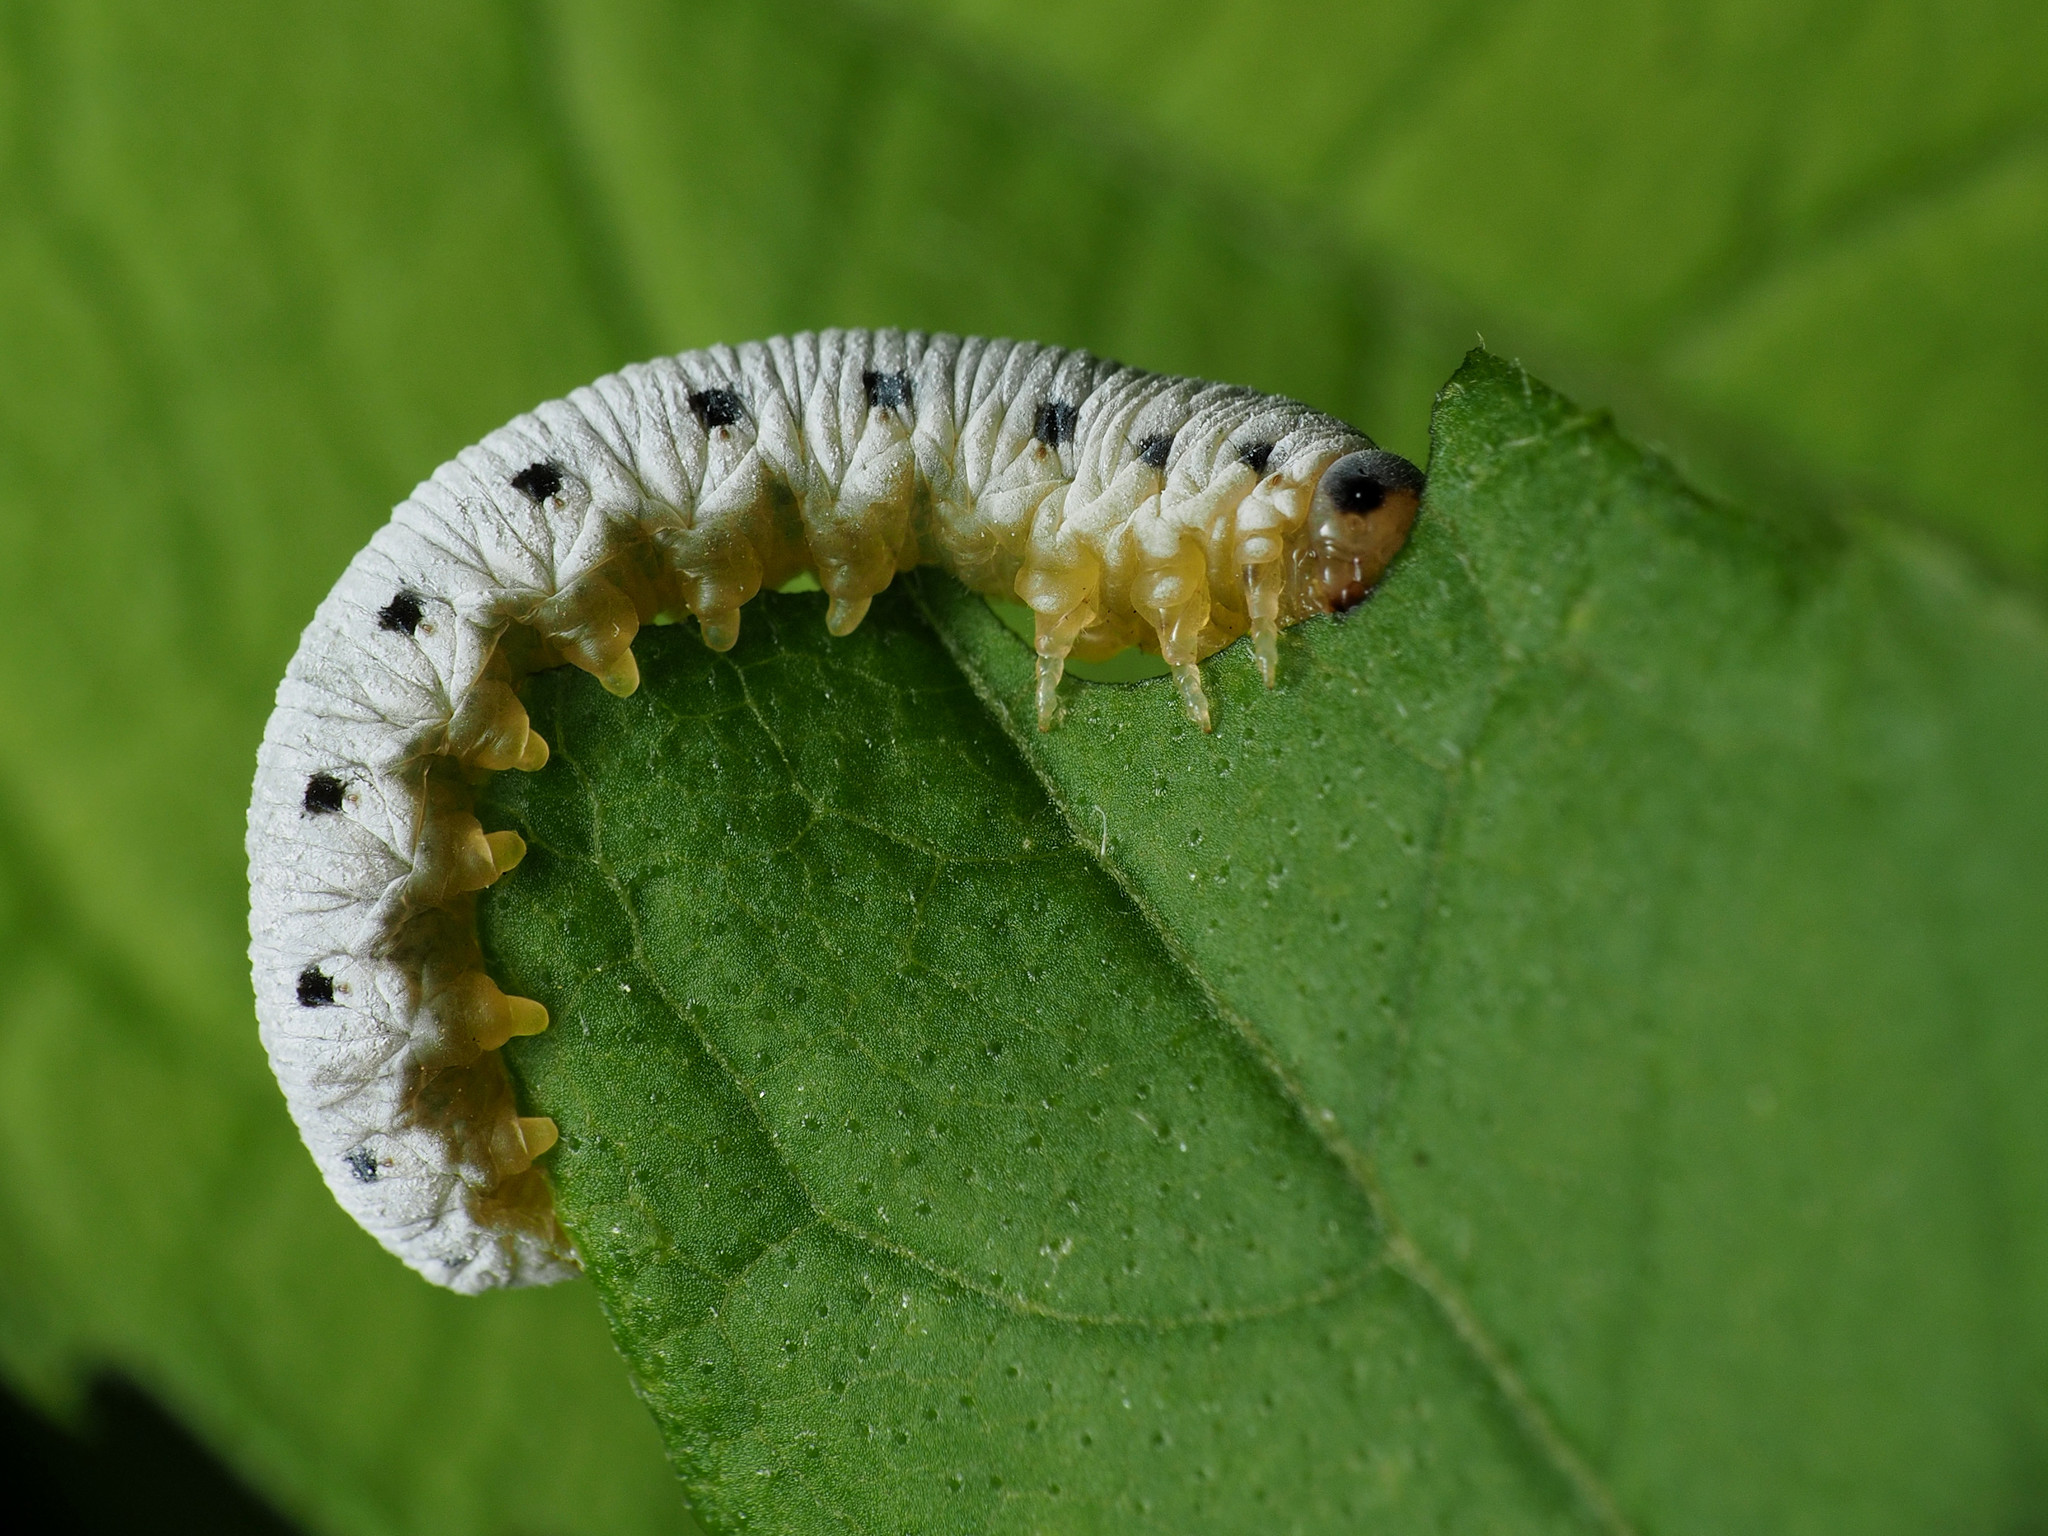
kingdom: Animalia
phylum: Arthropoda
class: Insecta
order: Hymenoptera
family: Tenthredinidae
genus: Macrophya
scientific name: Macrophya
